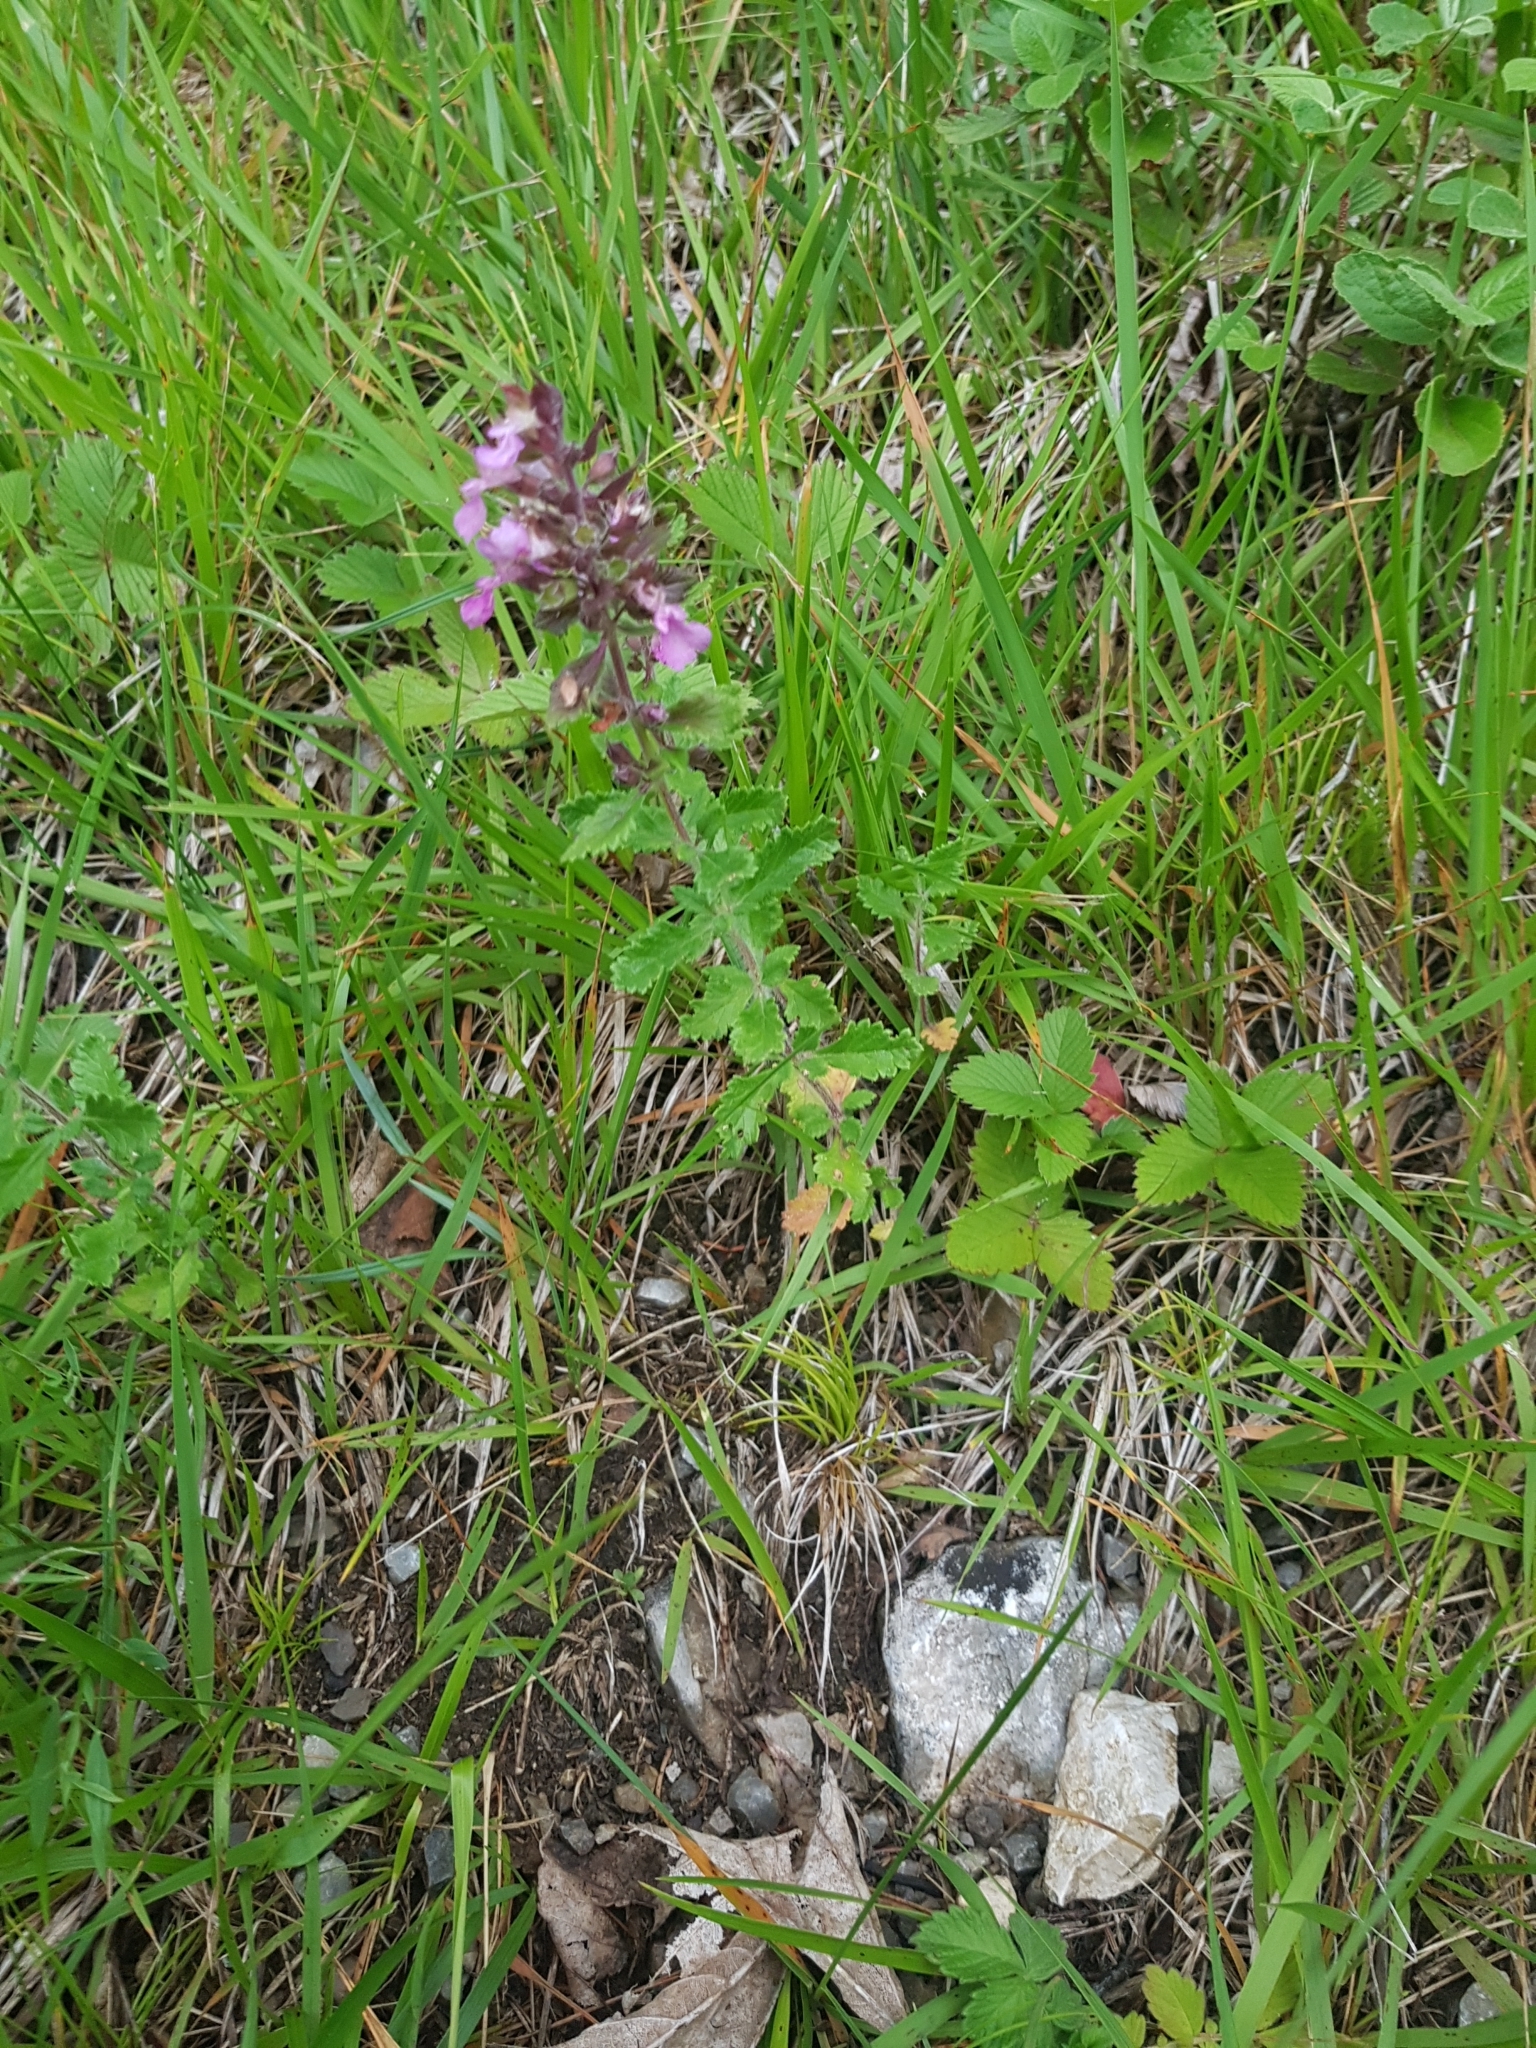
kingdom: Plantae
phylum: Tracheophyta
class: Magnoliopsida
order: Lamiales
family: Lamiaceae
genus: Teucrium
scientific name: Teucrium chamaedrys
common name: Wall germander
